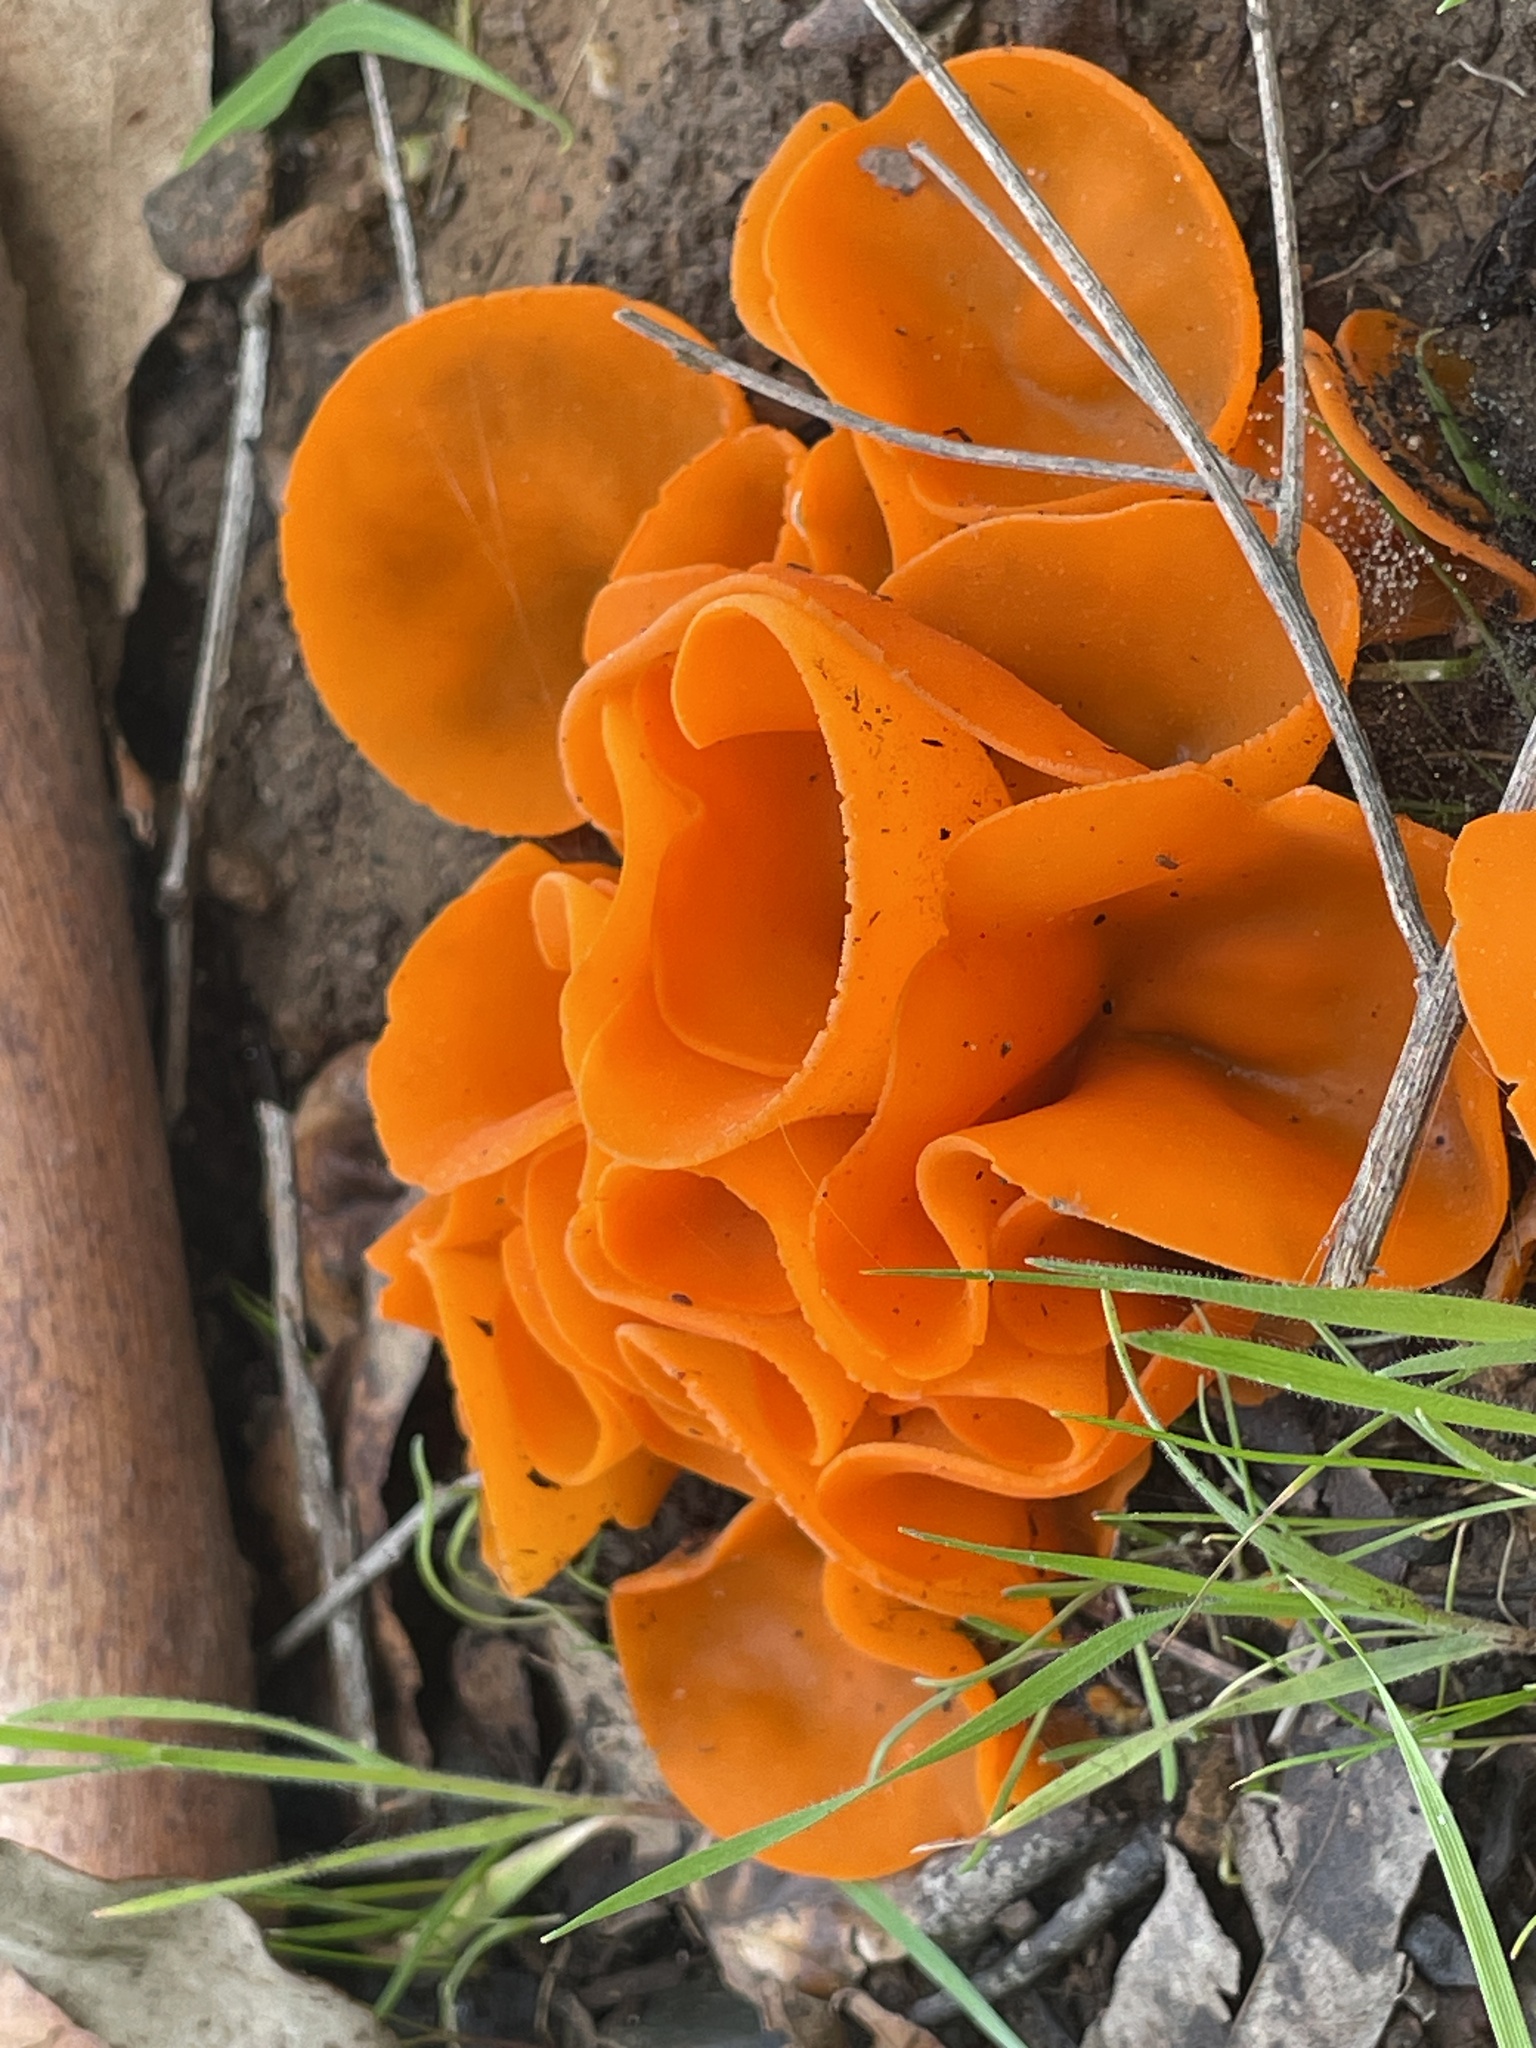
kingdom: Fungi
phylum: Ascomycota
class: Pezizomycetes
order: Pezizales
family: Pyronemataceae
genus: Aleuria
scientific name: Aleuria aurantia
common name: Orange peel fungus
